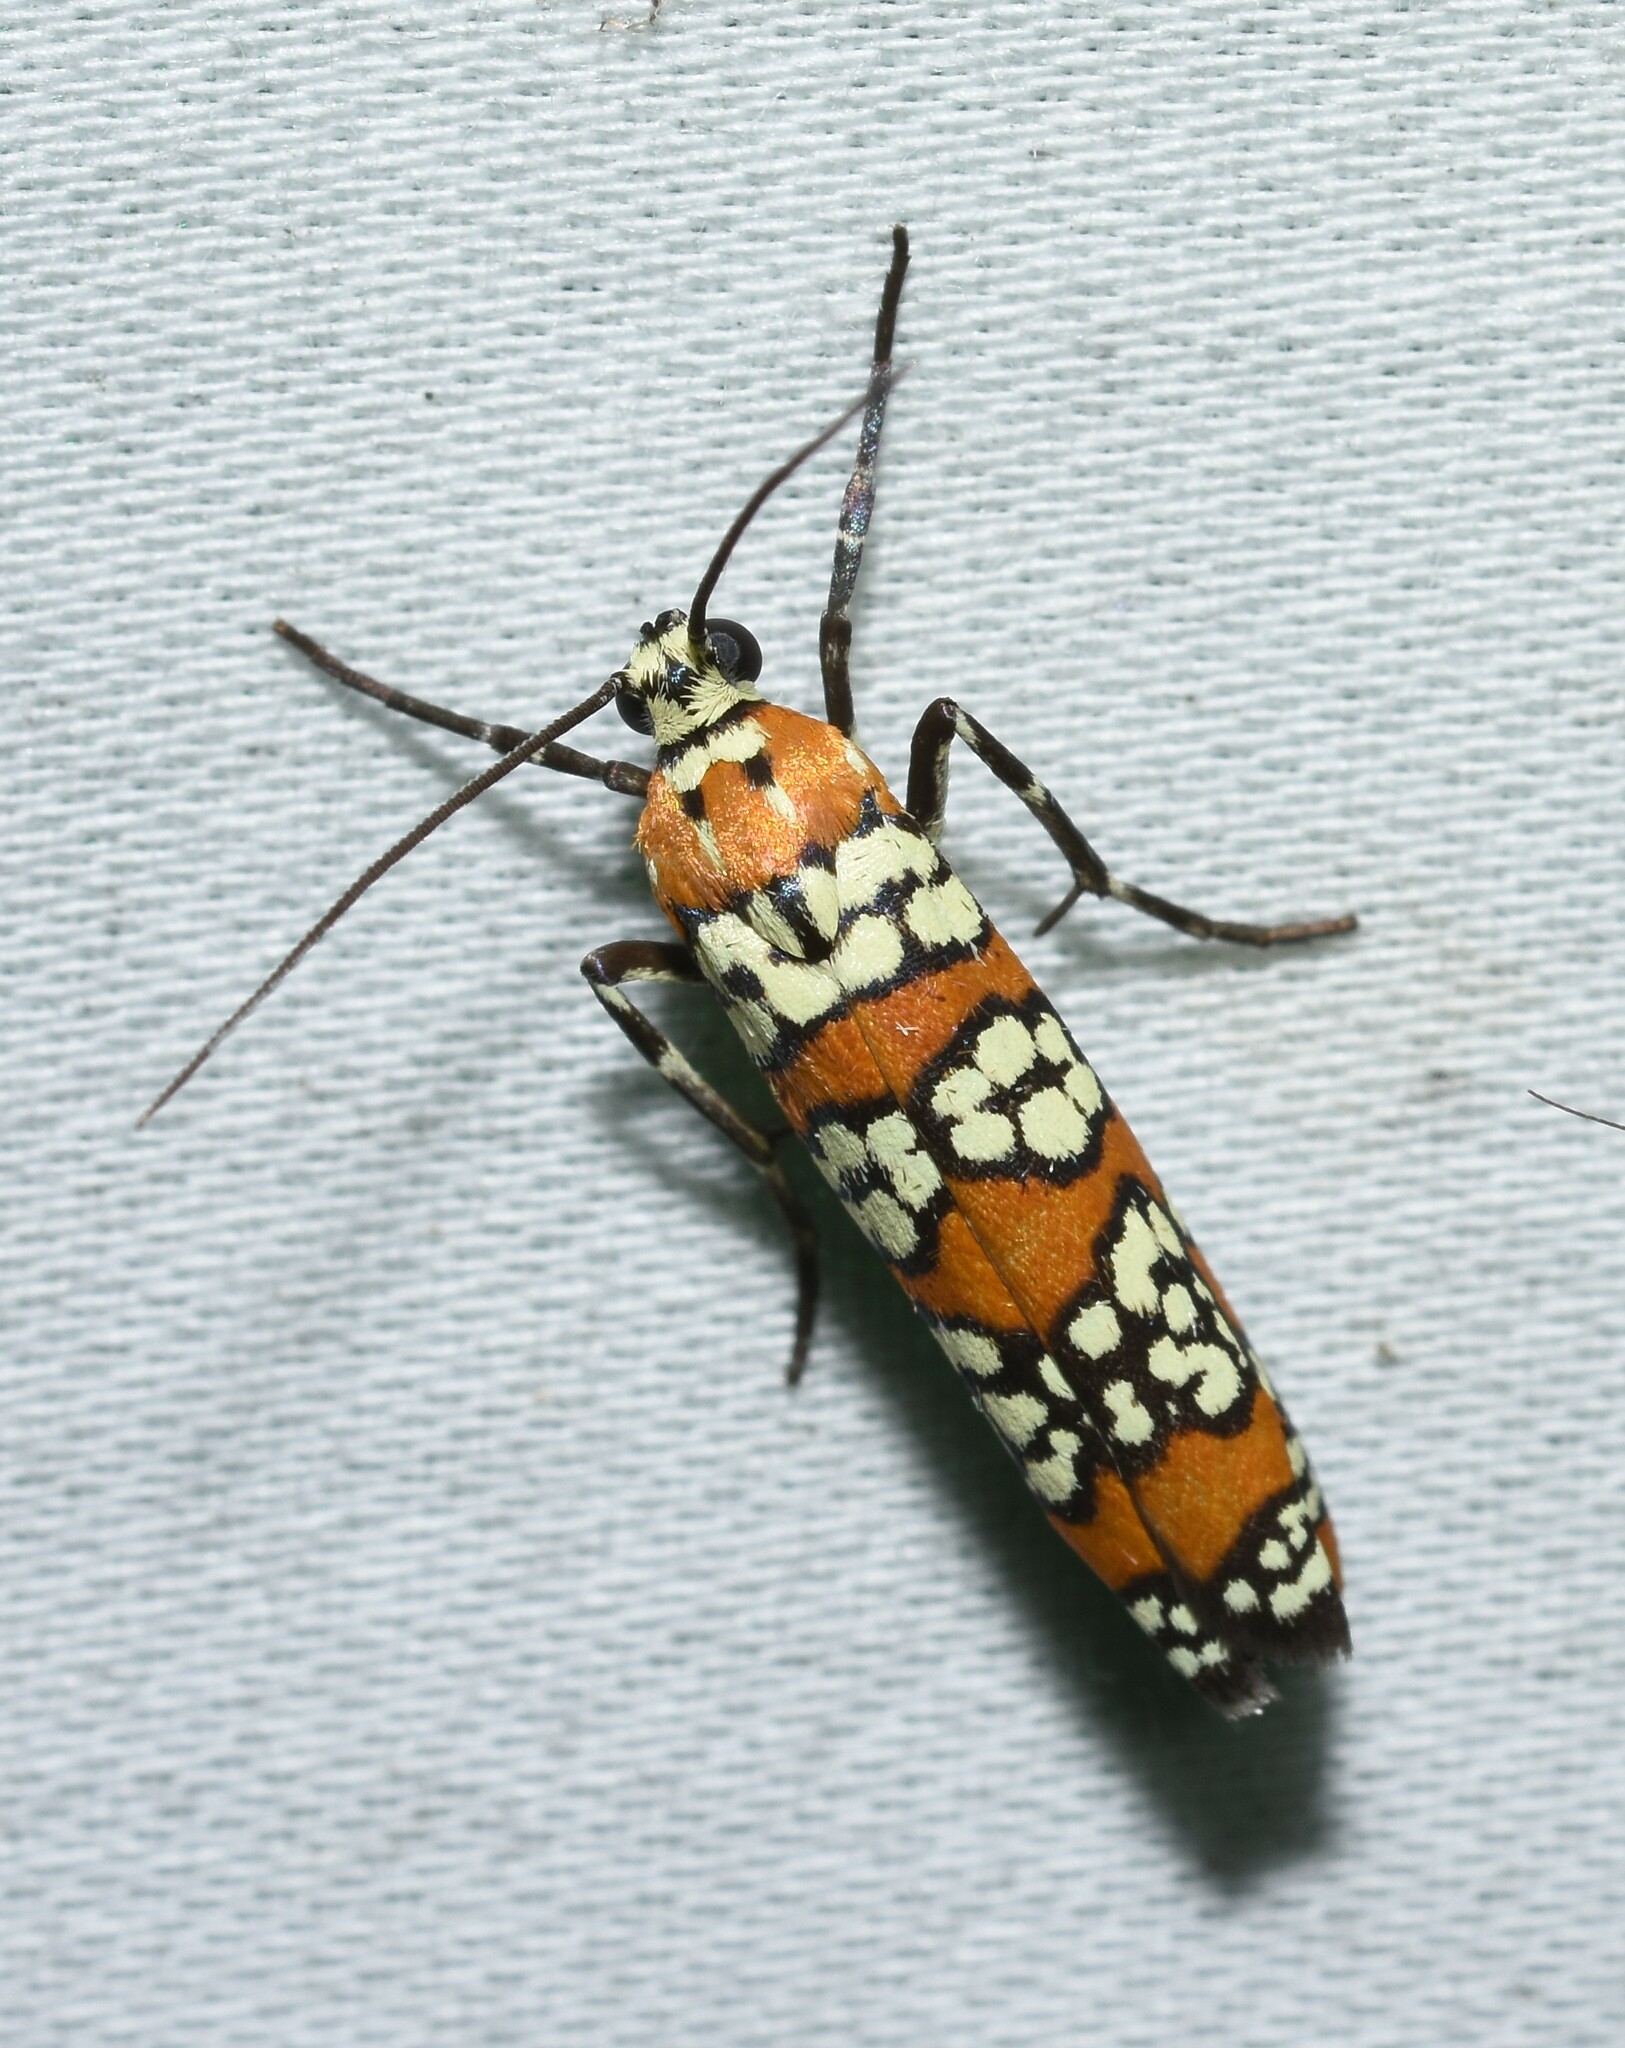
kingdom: Animalia
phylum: Arthropoda
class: Insecta
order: Lepidoptera
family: Attevidae
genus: Atteva
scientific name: Atteva punctella
